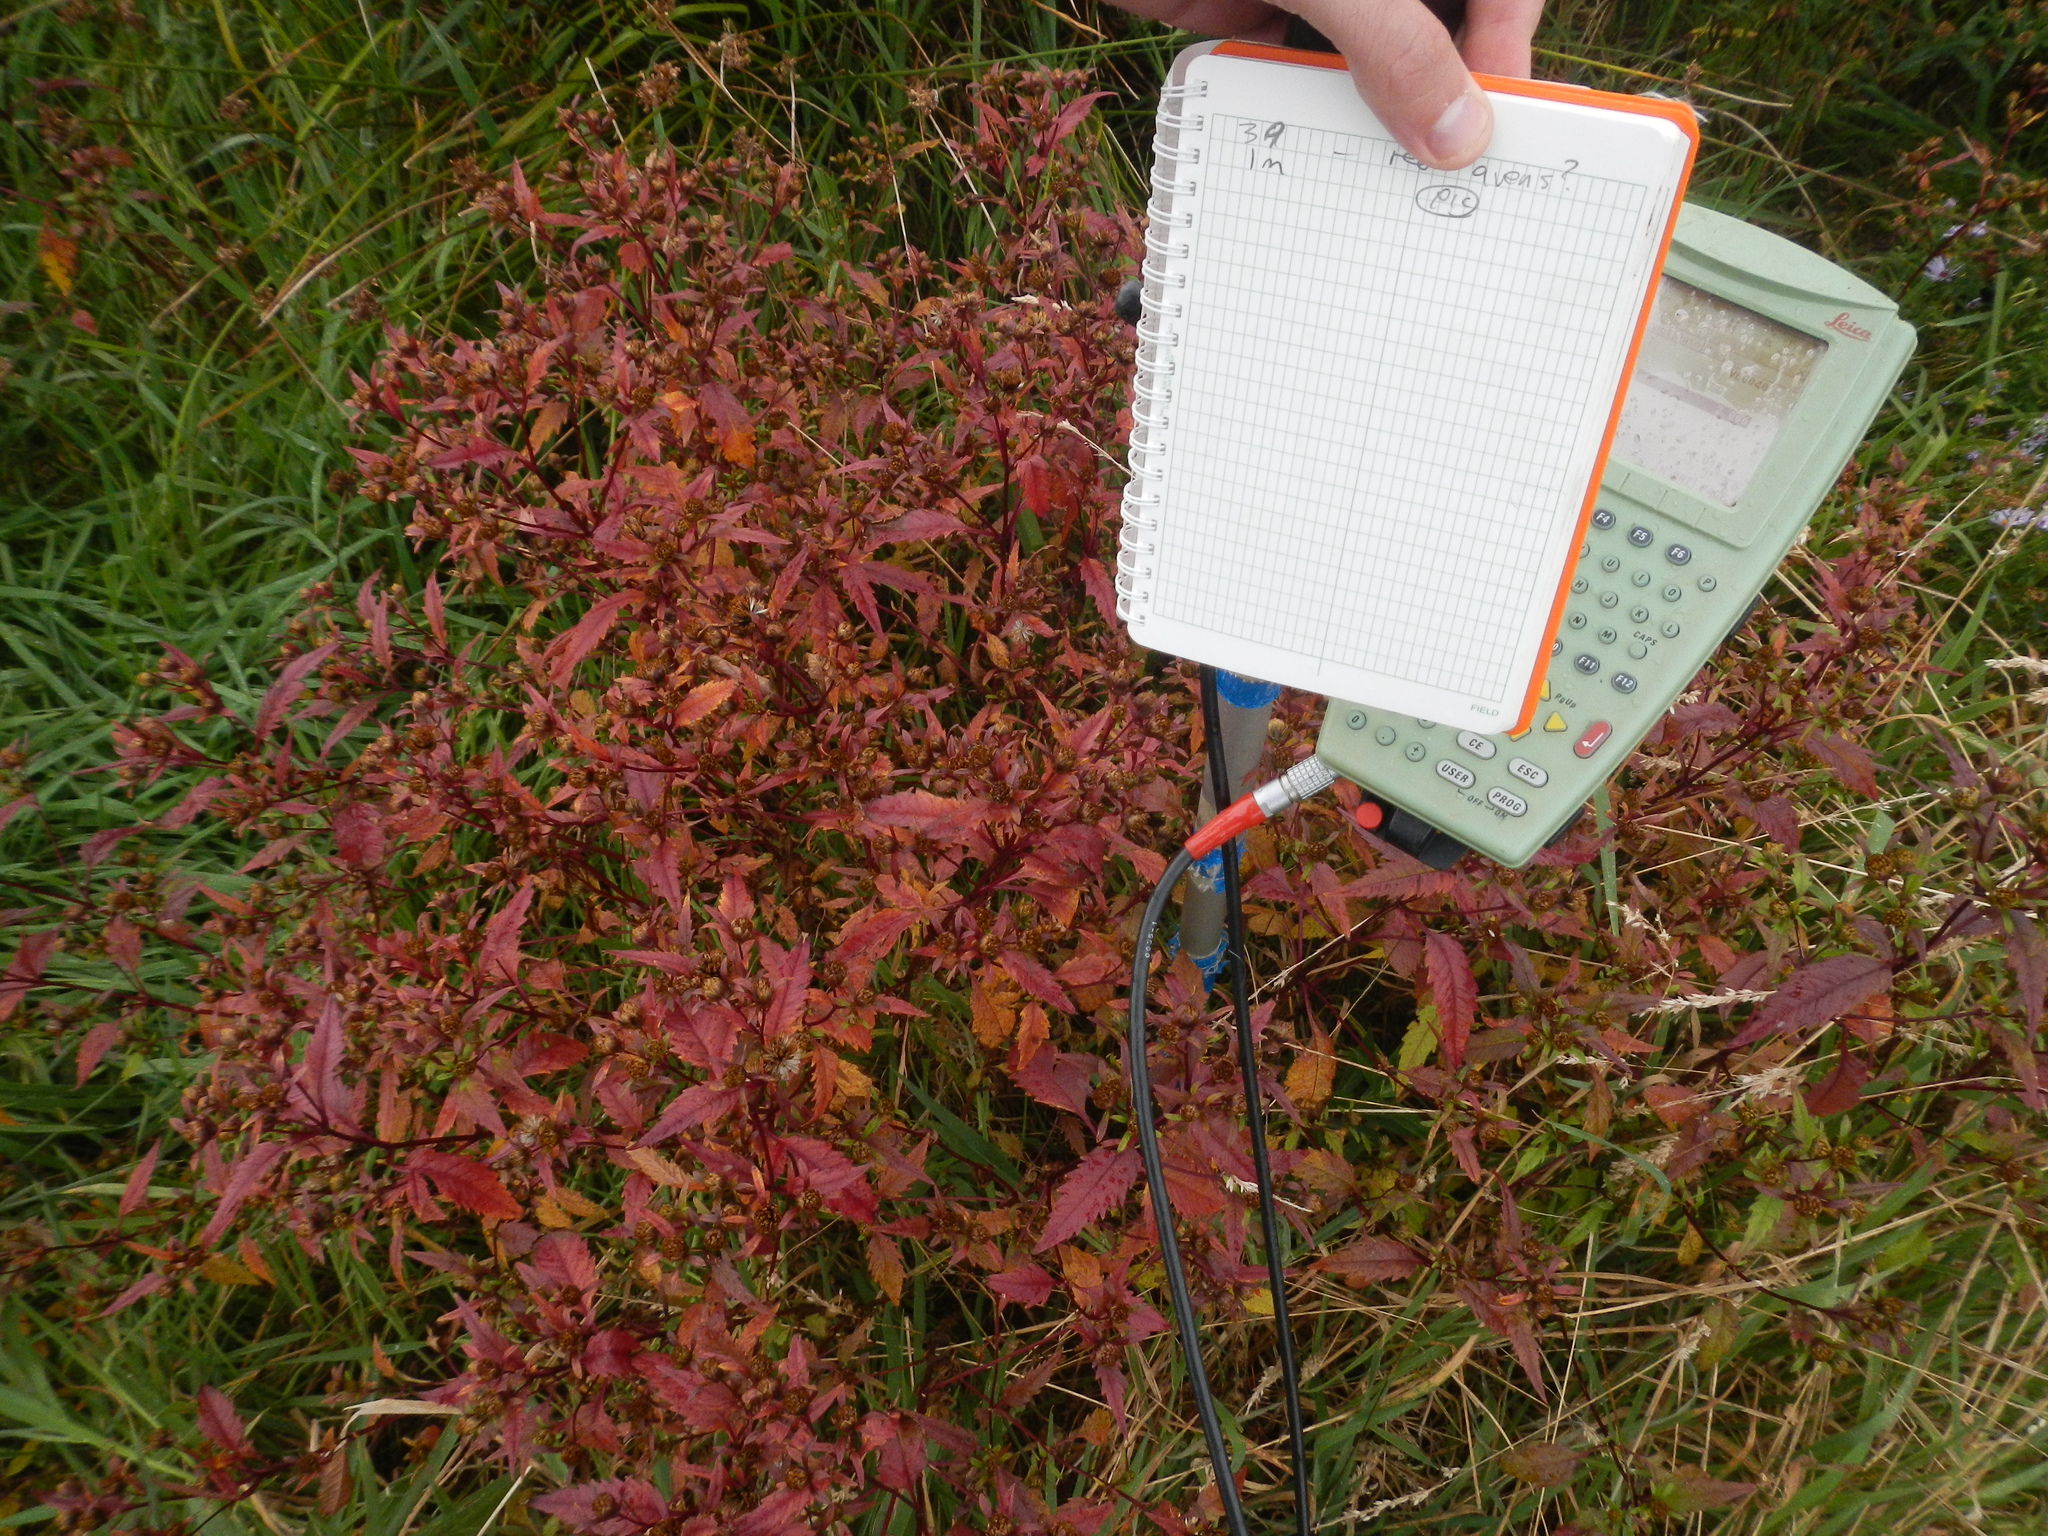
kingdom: Plantae
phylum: Tracheophyta
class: Magnoliopsida
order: Asterales
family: Asteraceae
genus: Bidens
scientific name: Bidens frondosa
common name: Beggarticks
